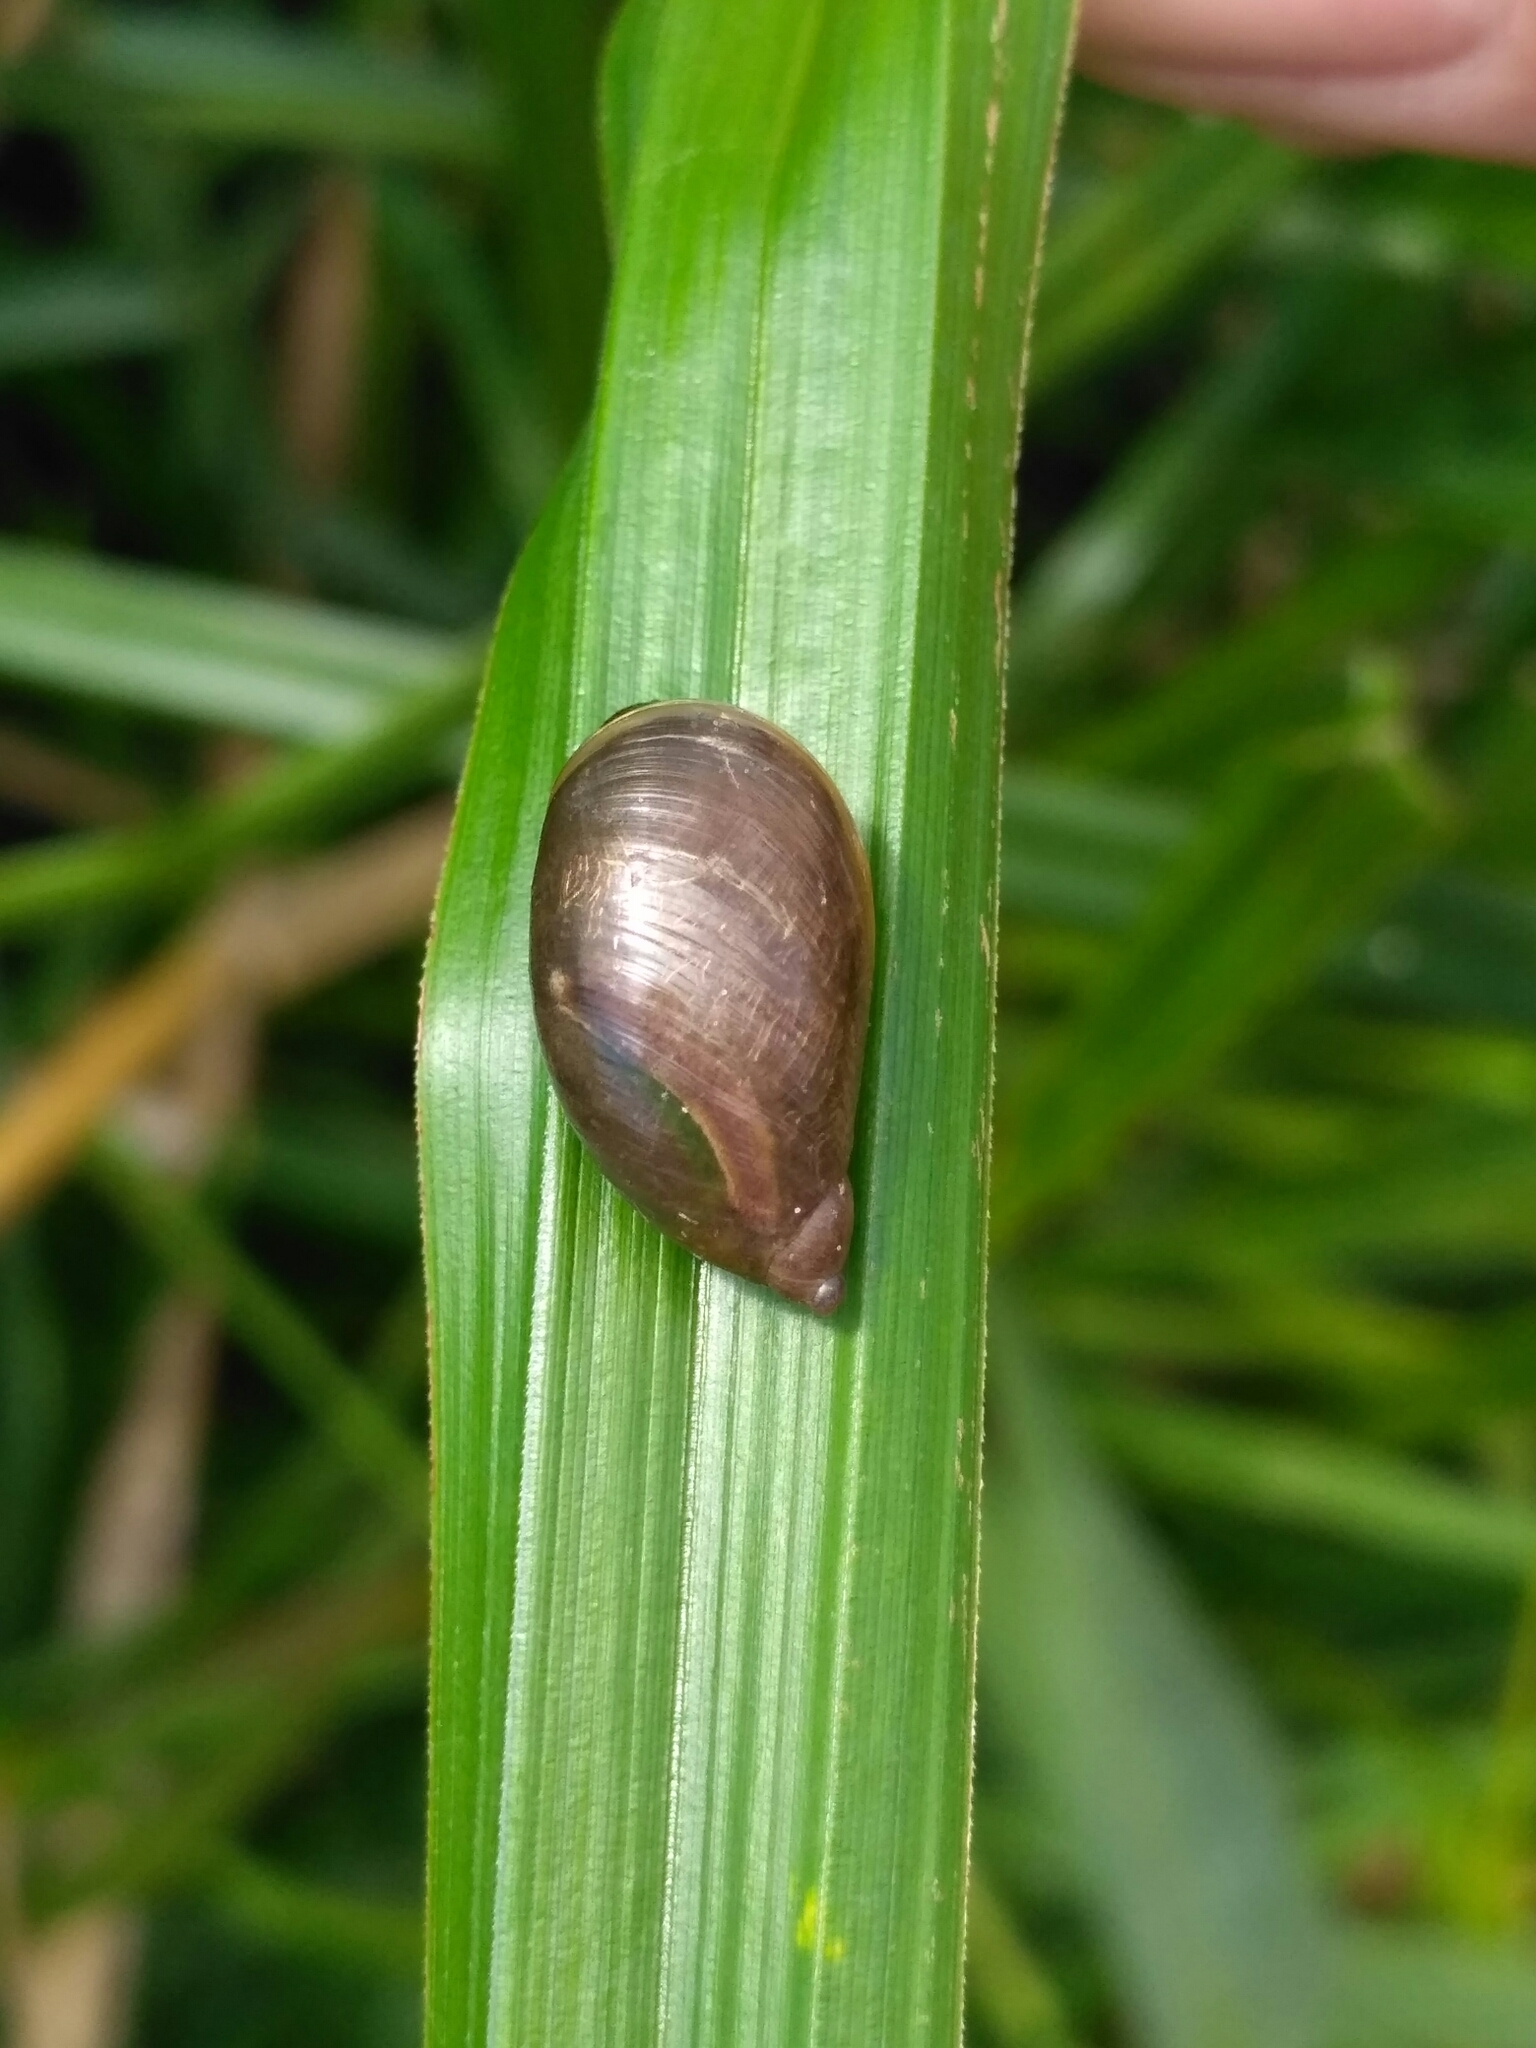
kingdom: Animalia
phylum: Mollusca
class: Gastropoda
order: Stylommatophora
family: Succineidae
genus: Succinea
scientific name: Succinea putris
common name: European ambersnail
